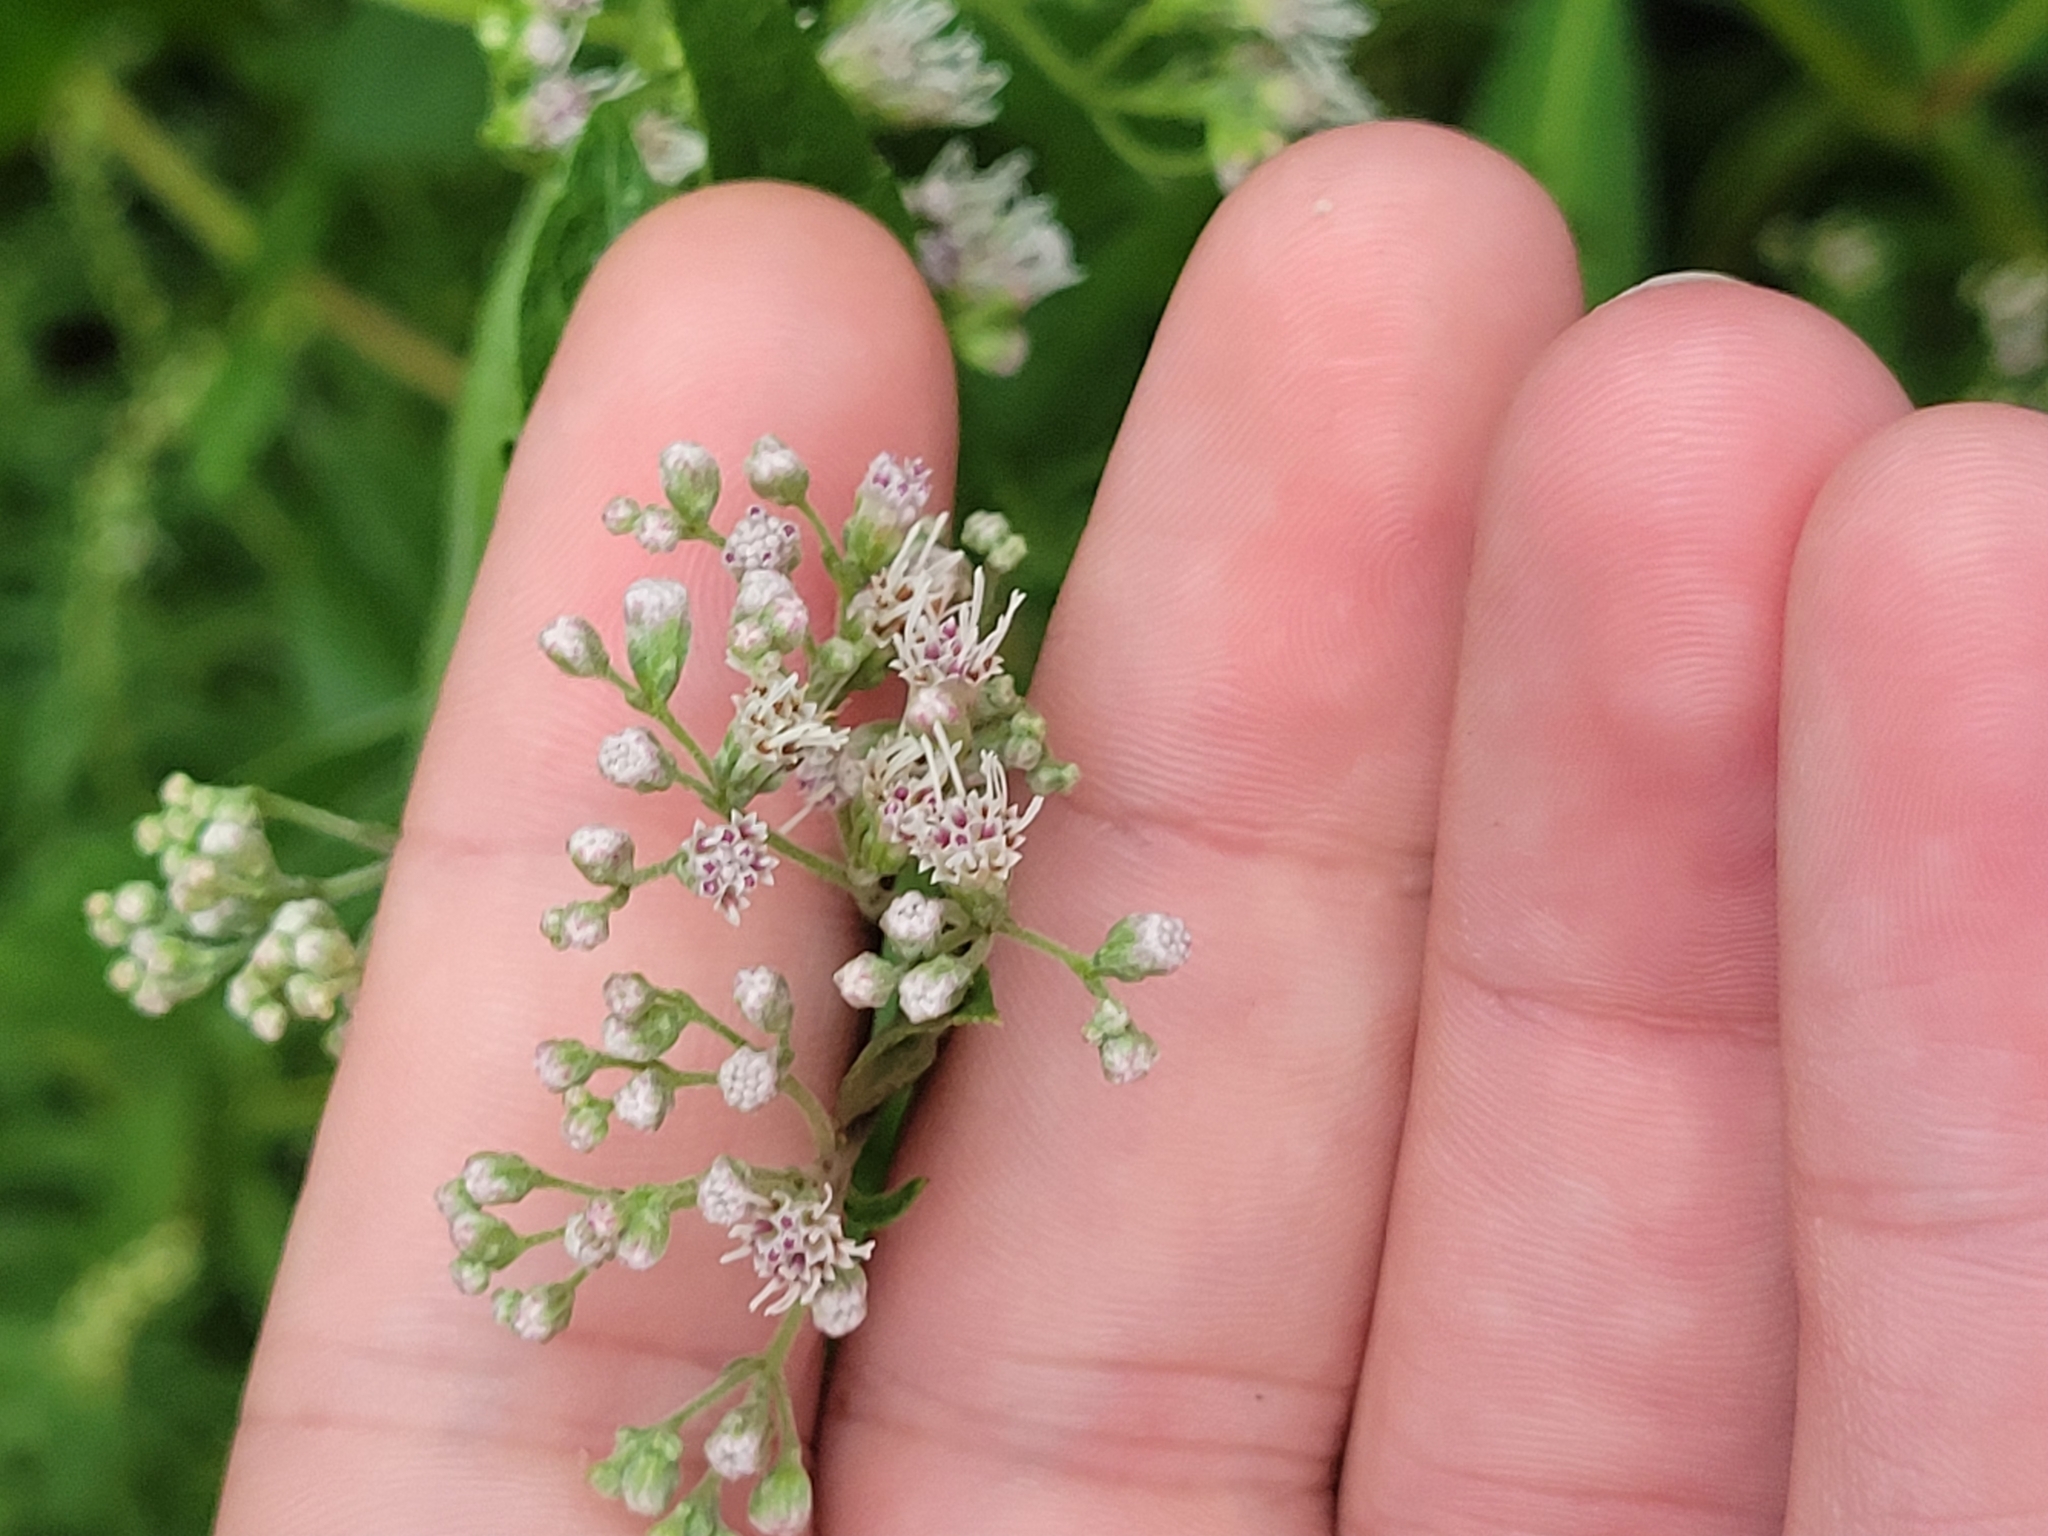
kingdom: Plantae
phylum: Tracheophyta
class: Magnoliopsida
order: Asterales
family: Asteraceae
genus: Eupatorium
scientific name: Eupatorium serotinum
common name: Late boneset
